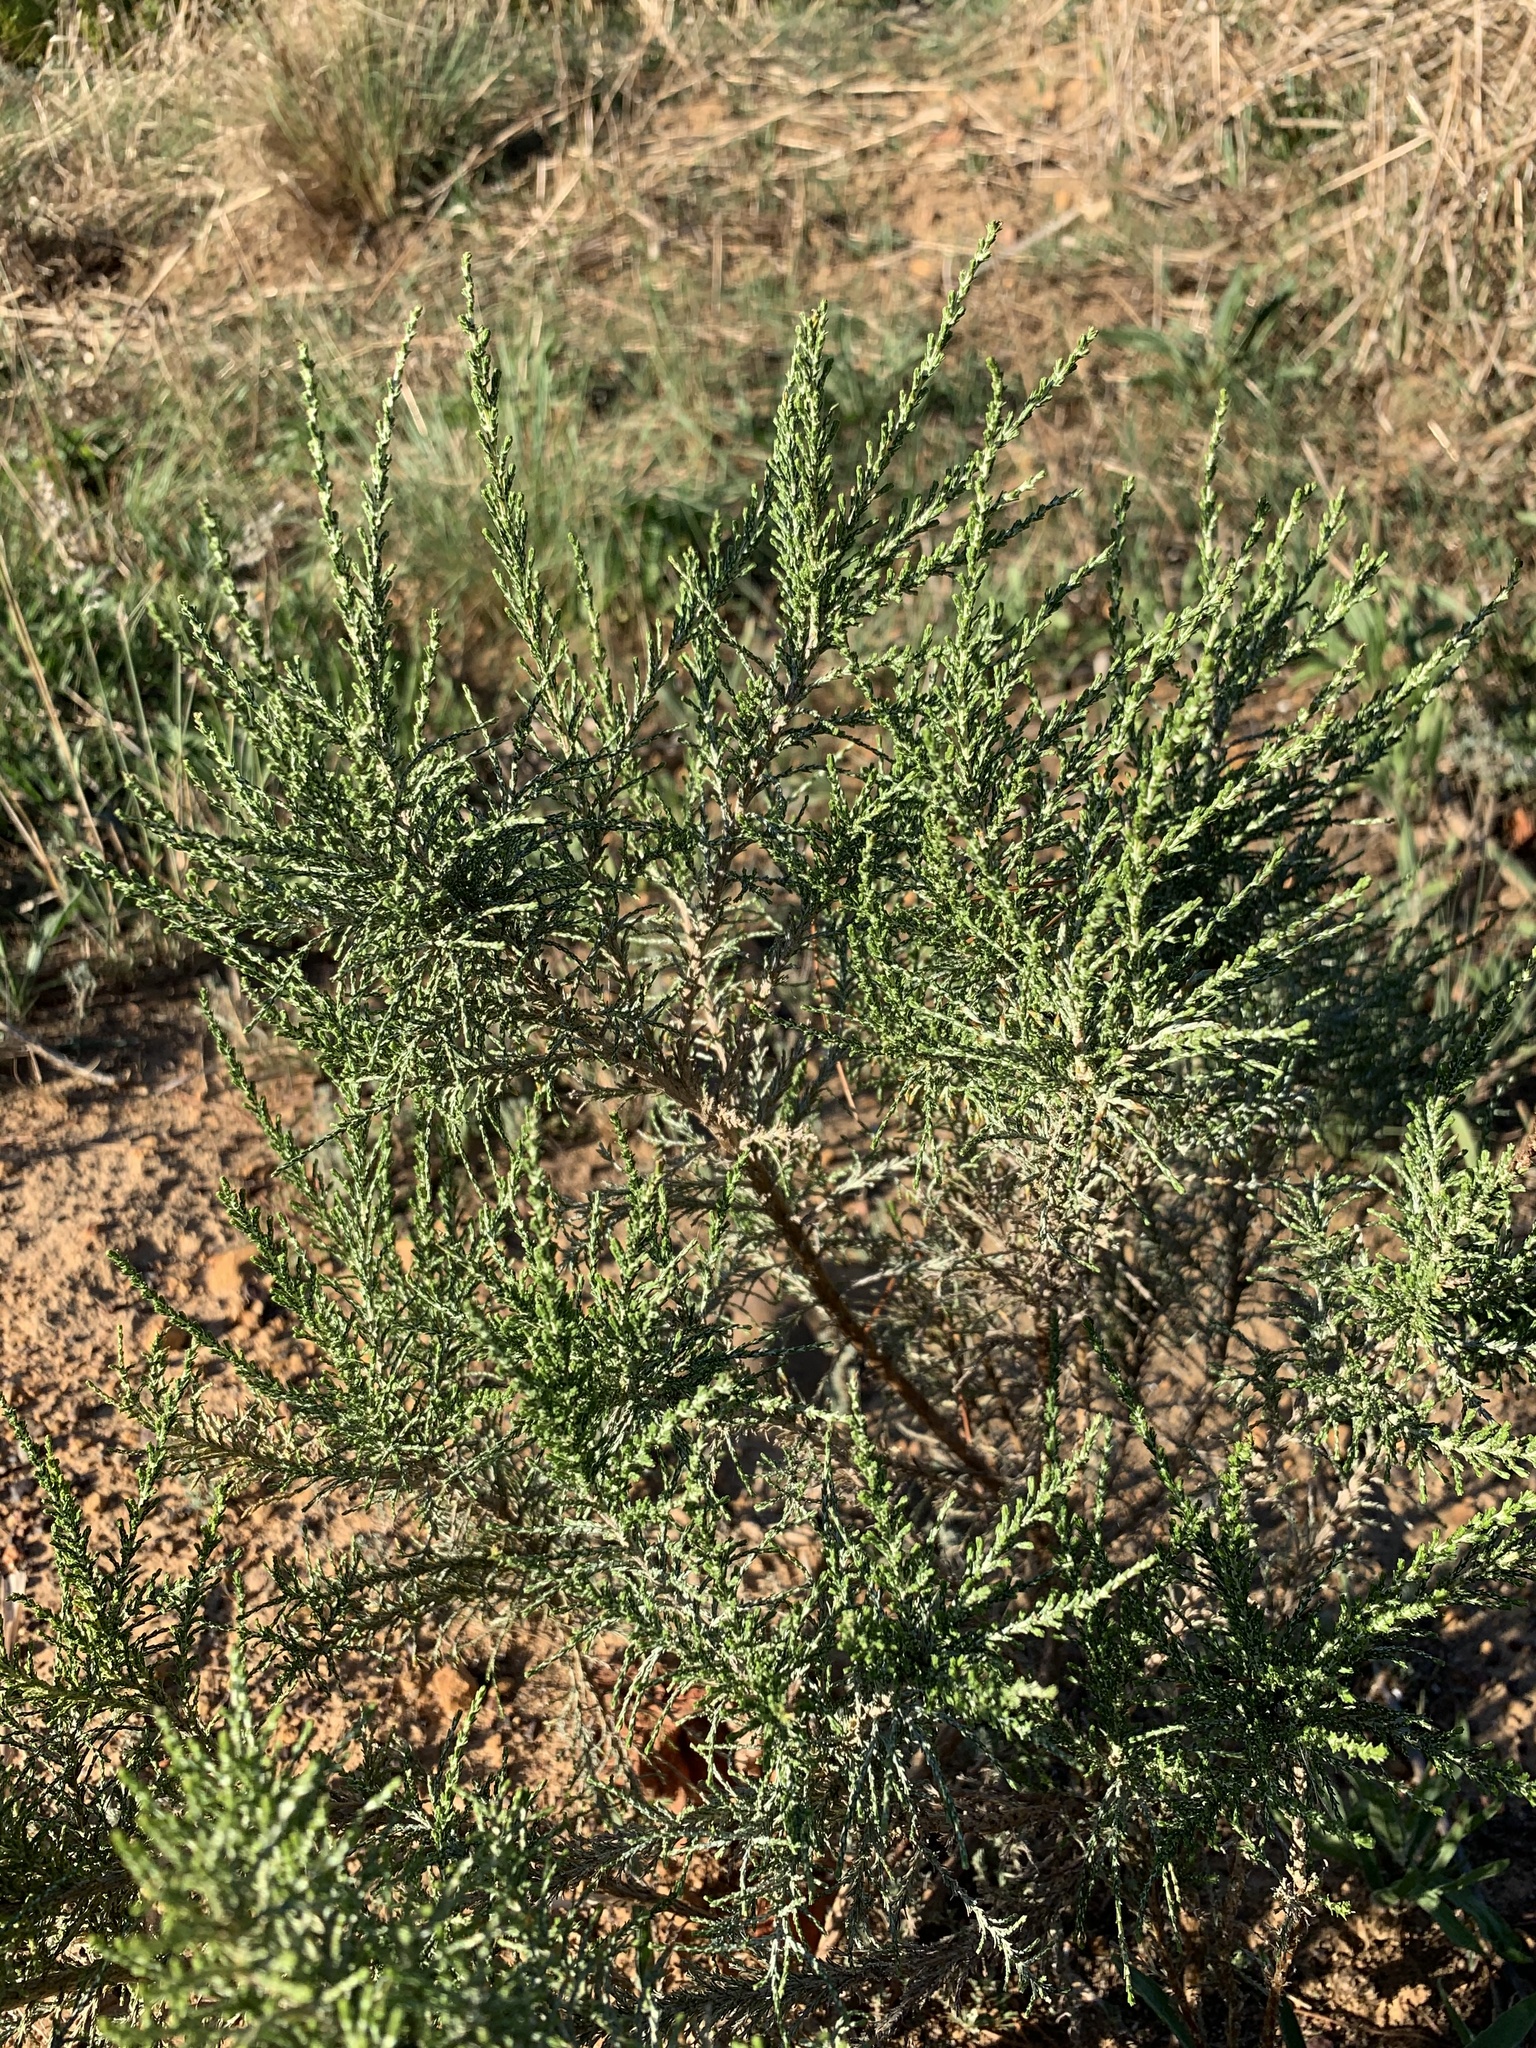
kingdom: Plantae
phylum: Tracheophyta
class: Magnoliopsida
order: Asterales
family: Asteraceae
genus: Dicerothamnus
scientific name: Dicerothamnus rhinocerotis
